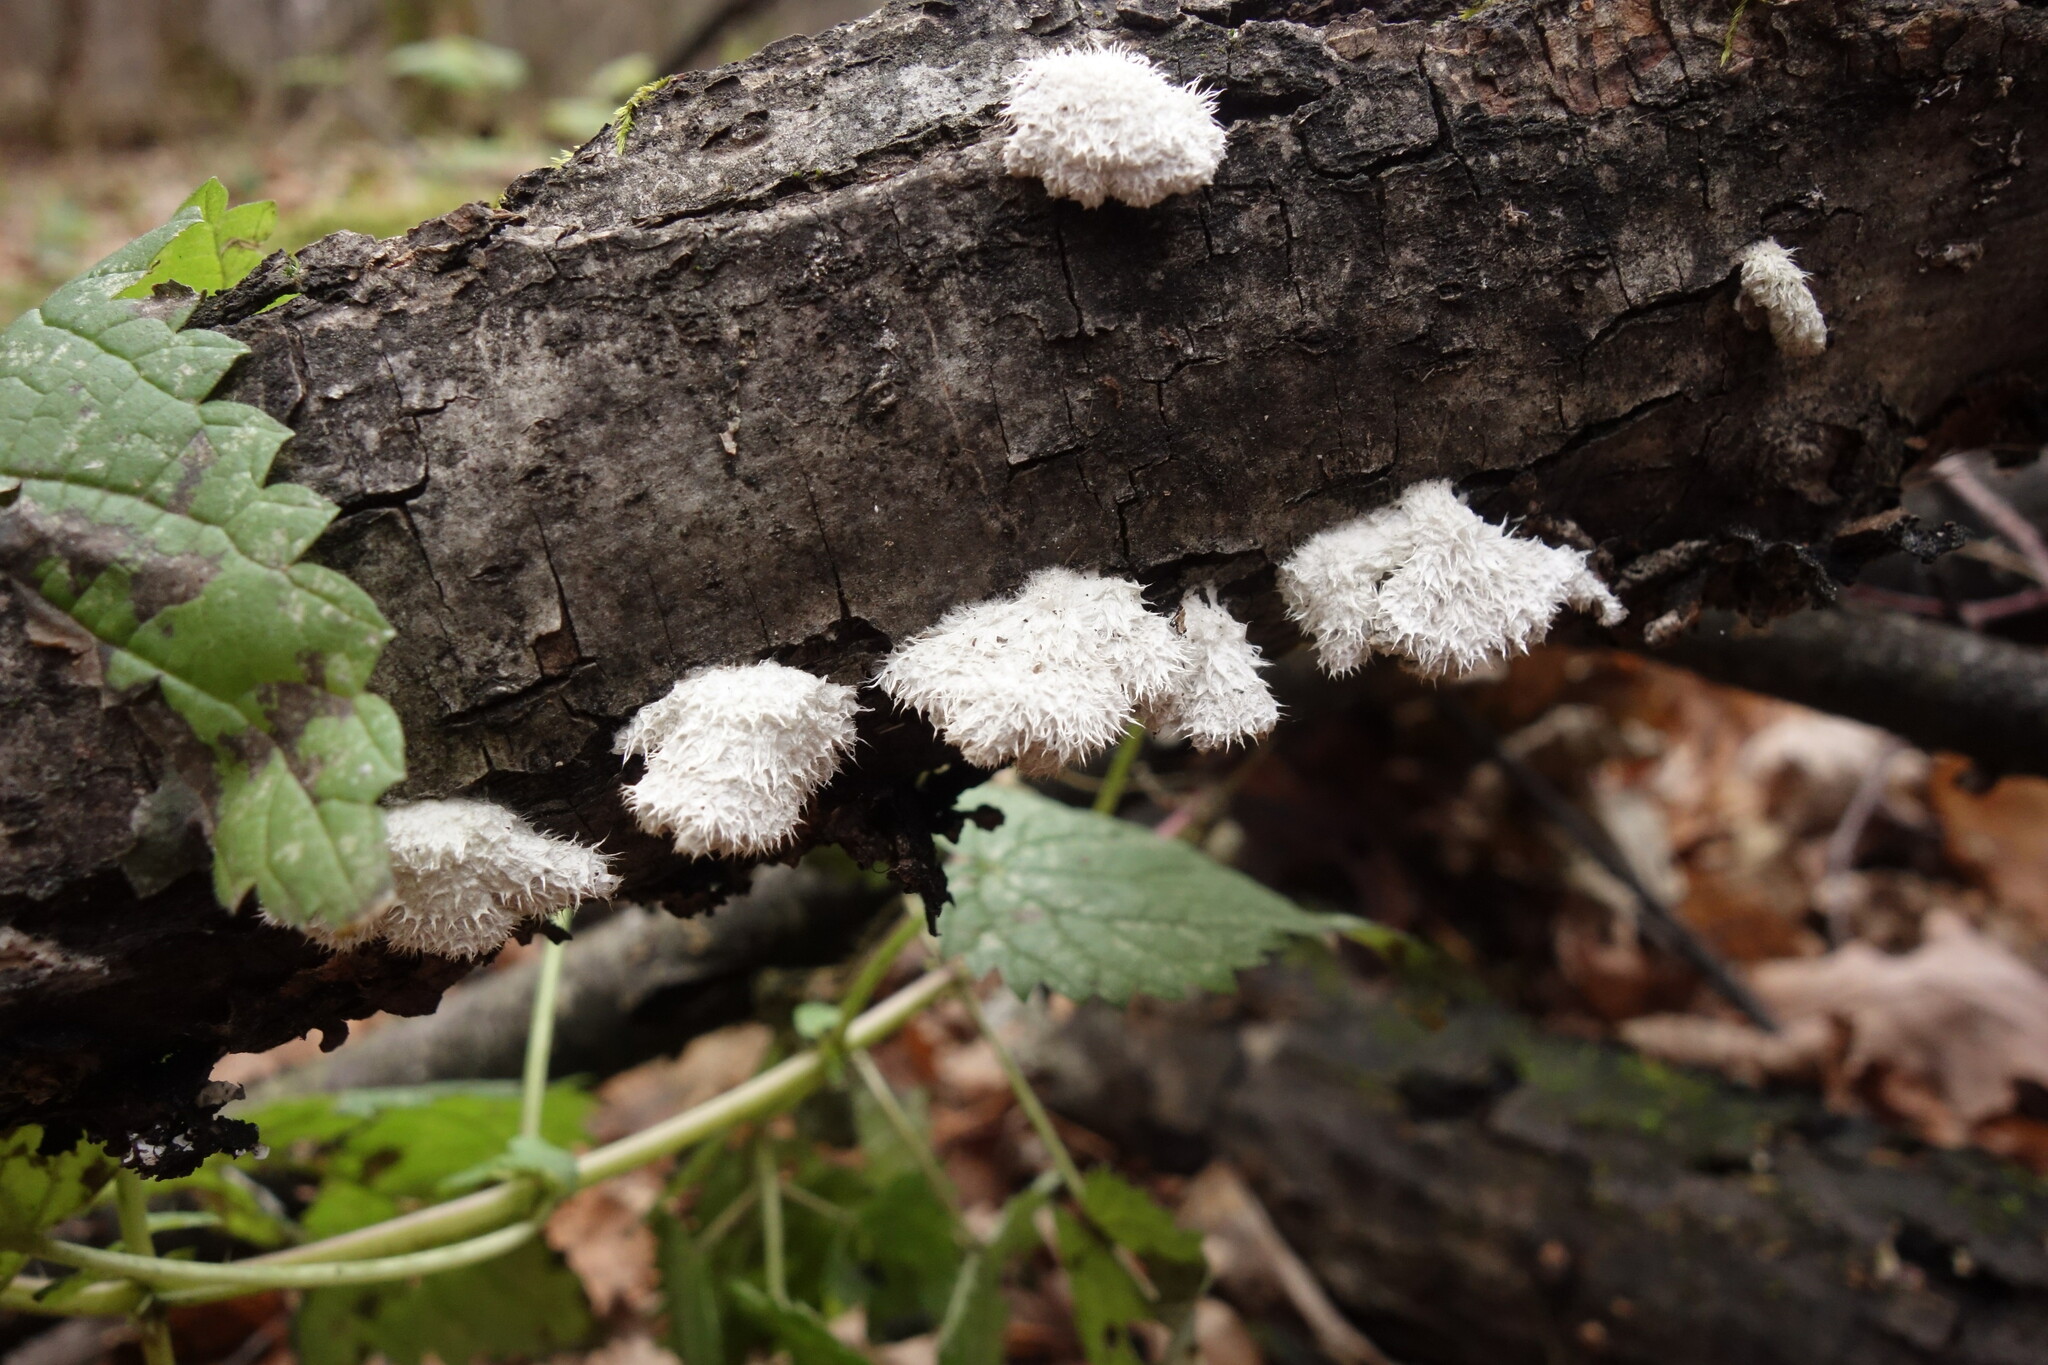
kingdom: Fungi
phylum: Basidiomycota
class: Agaricomycetes
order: Agaricales
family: Schizophyllaceae
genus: Schizophyllum
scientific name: Schizophyllum commune
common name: Common porecrust
